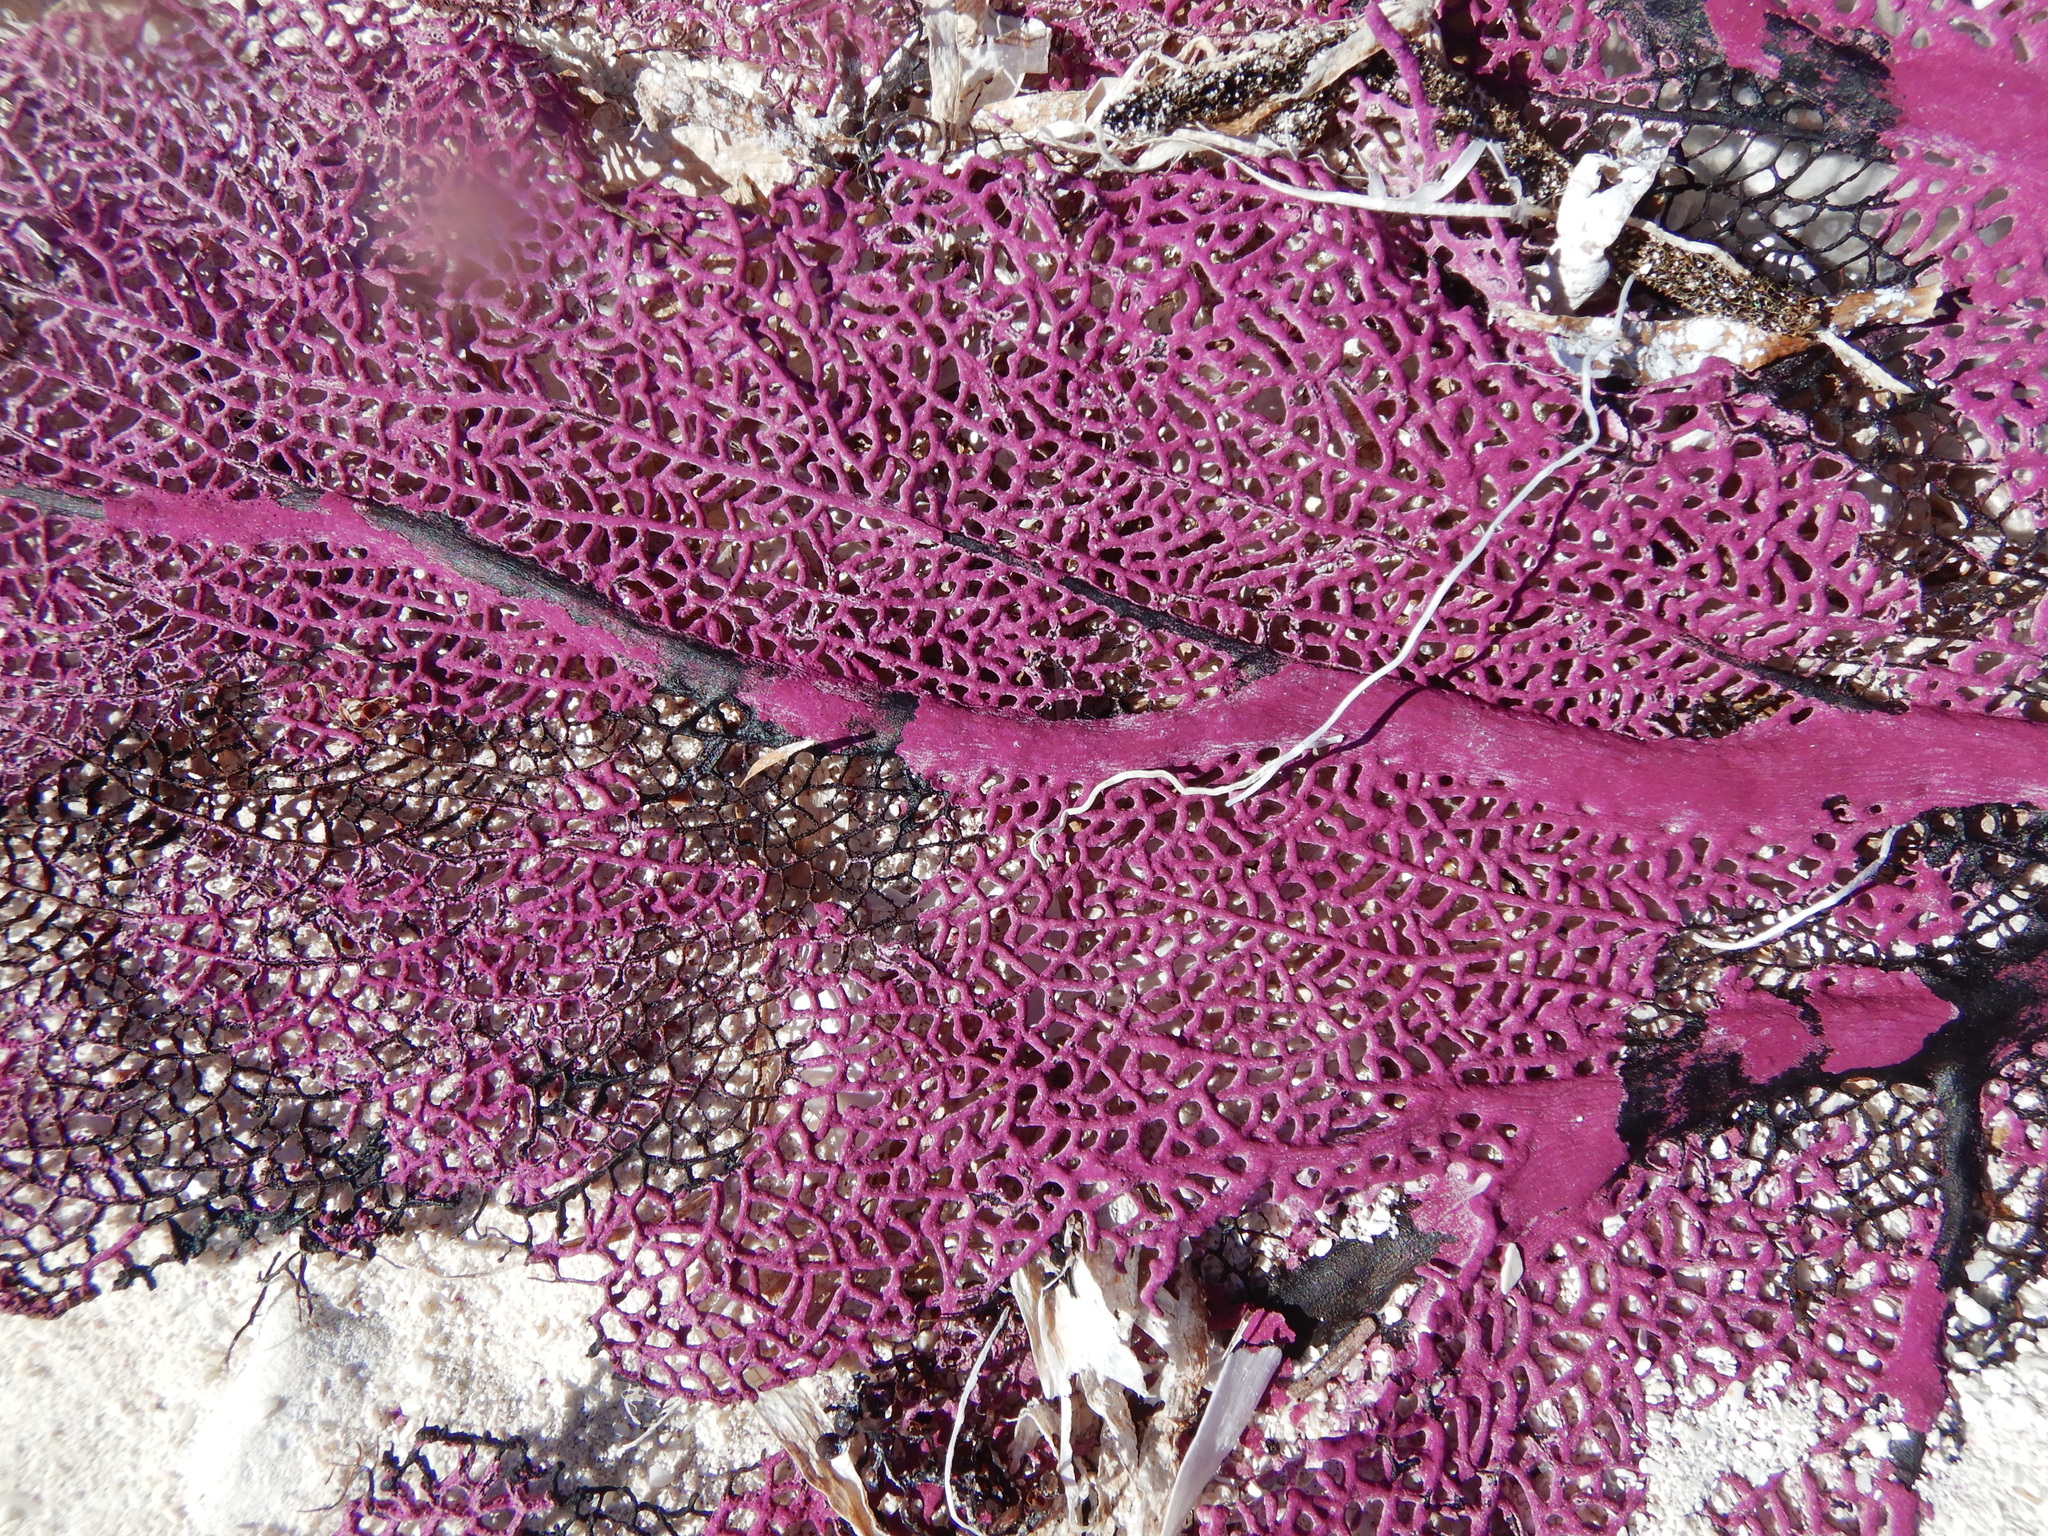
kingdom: Animalia
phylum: Cnidaria
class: Anthozoa
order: Malacalcyonacea
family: Gorgoniidae
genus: Gorgonia
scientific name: Gorgonia ventalina
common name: Common sea fan
